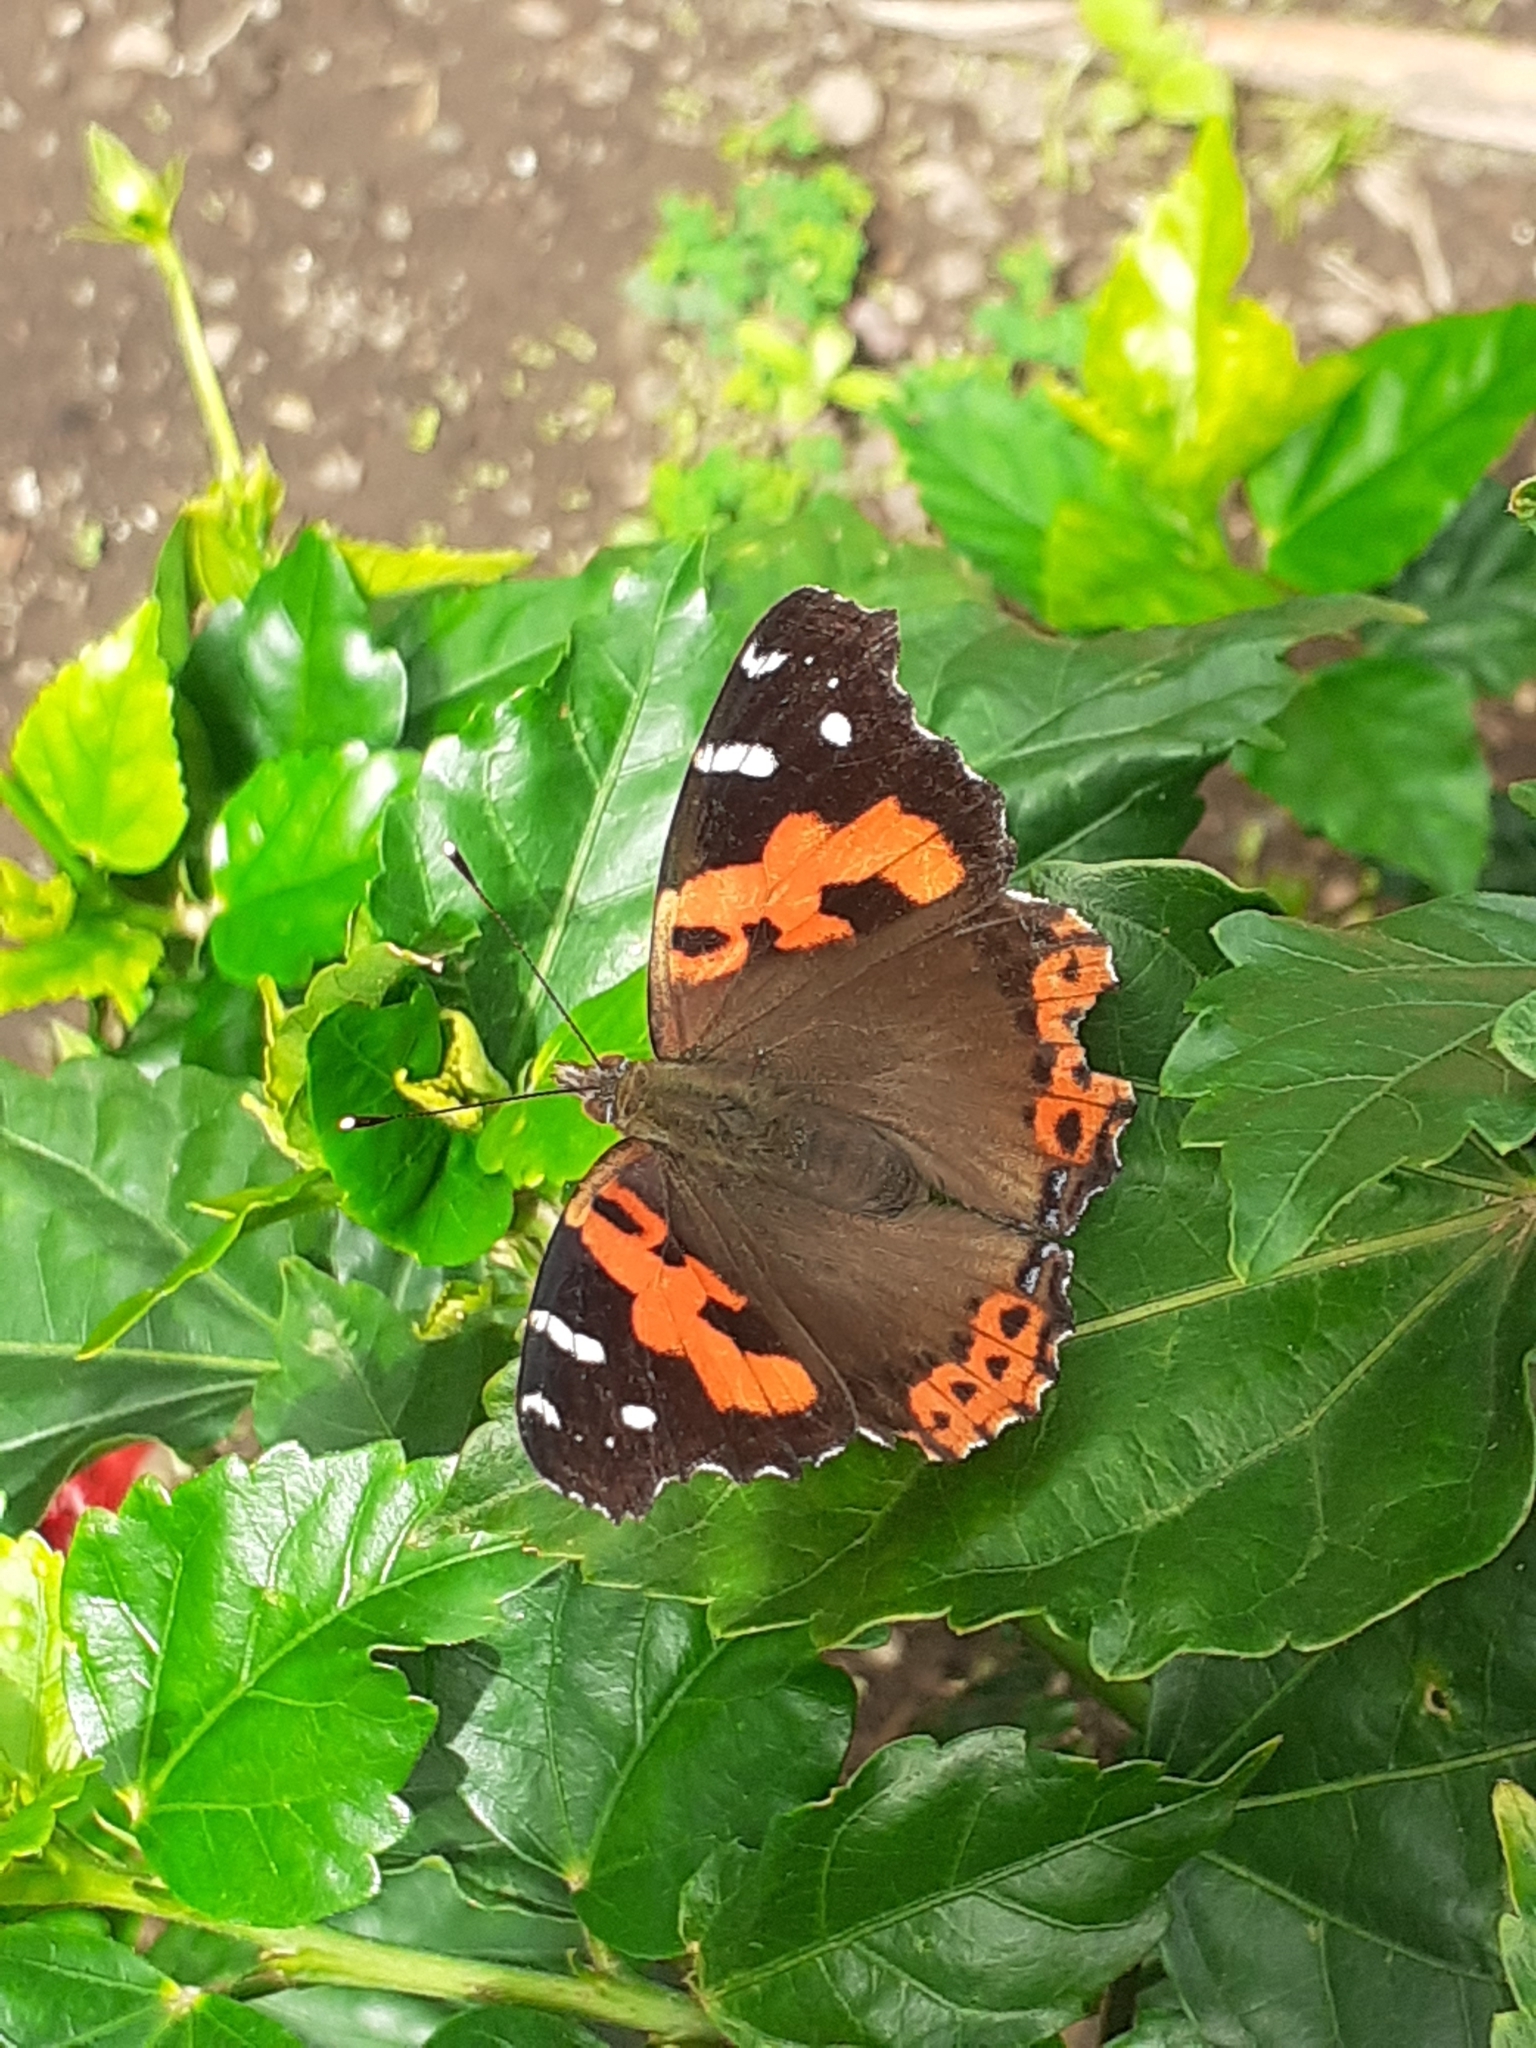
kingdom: Animalia
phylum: Arthropoda
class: Insecta
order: Lepidoptera
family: Nymphalidae
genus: Vanessa
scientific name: Vanessa vulcania
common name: Canary red admiral
